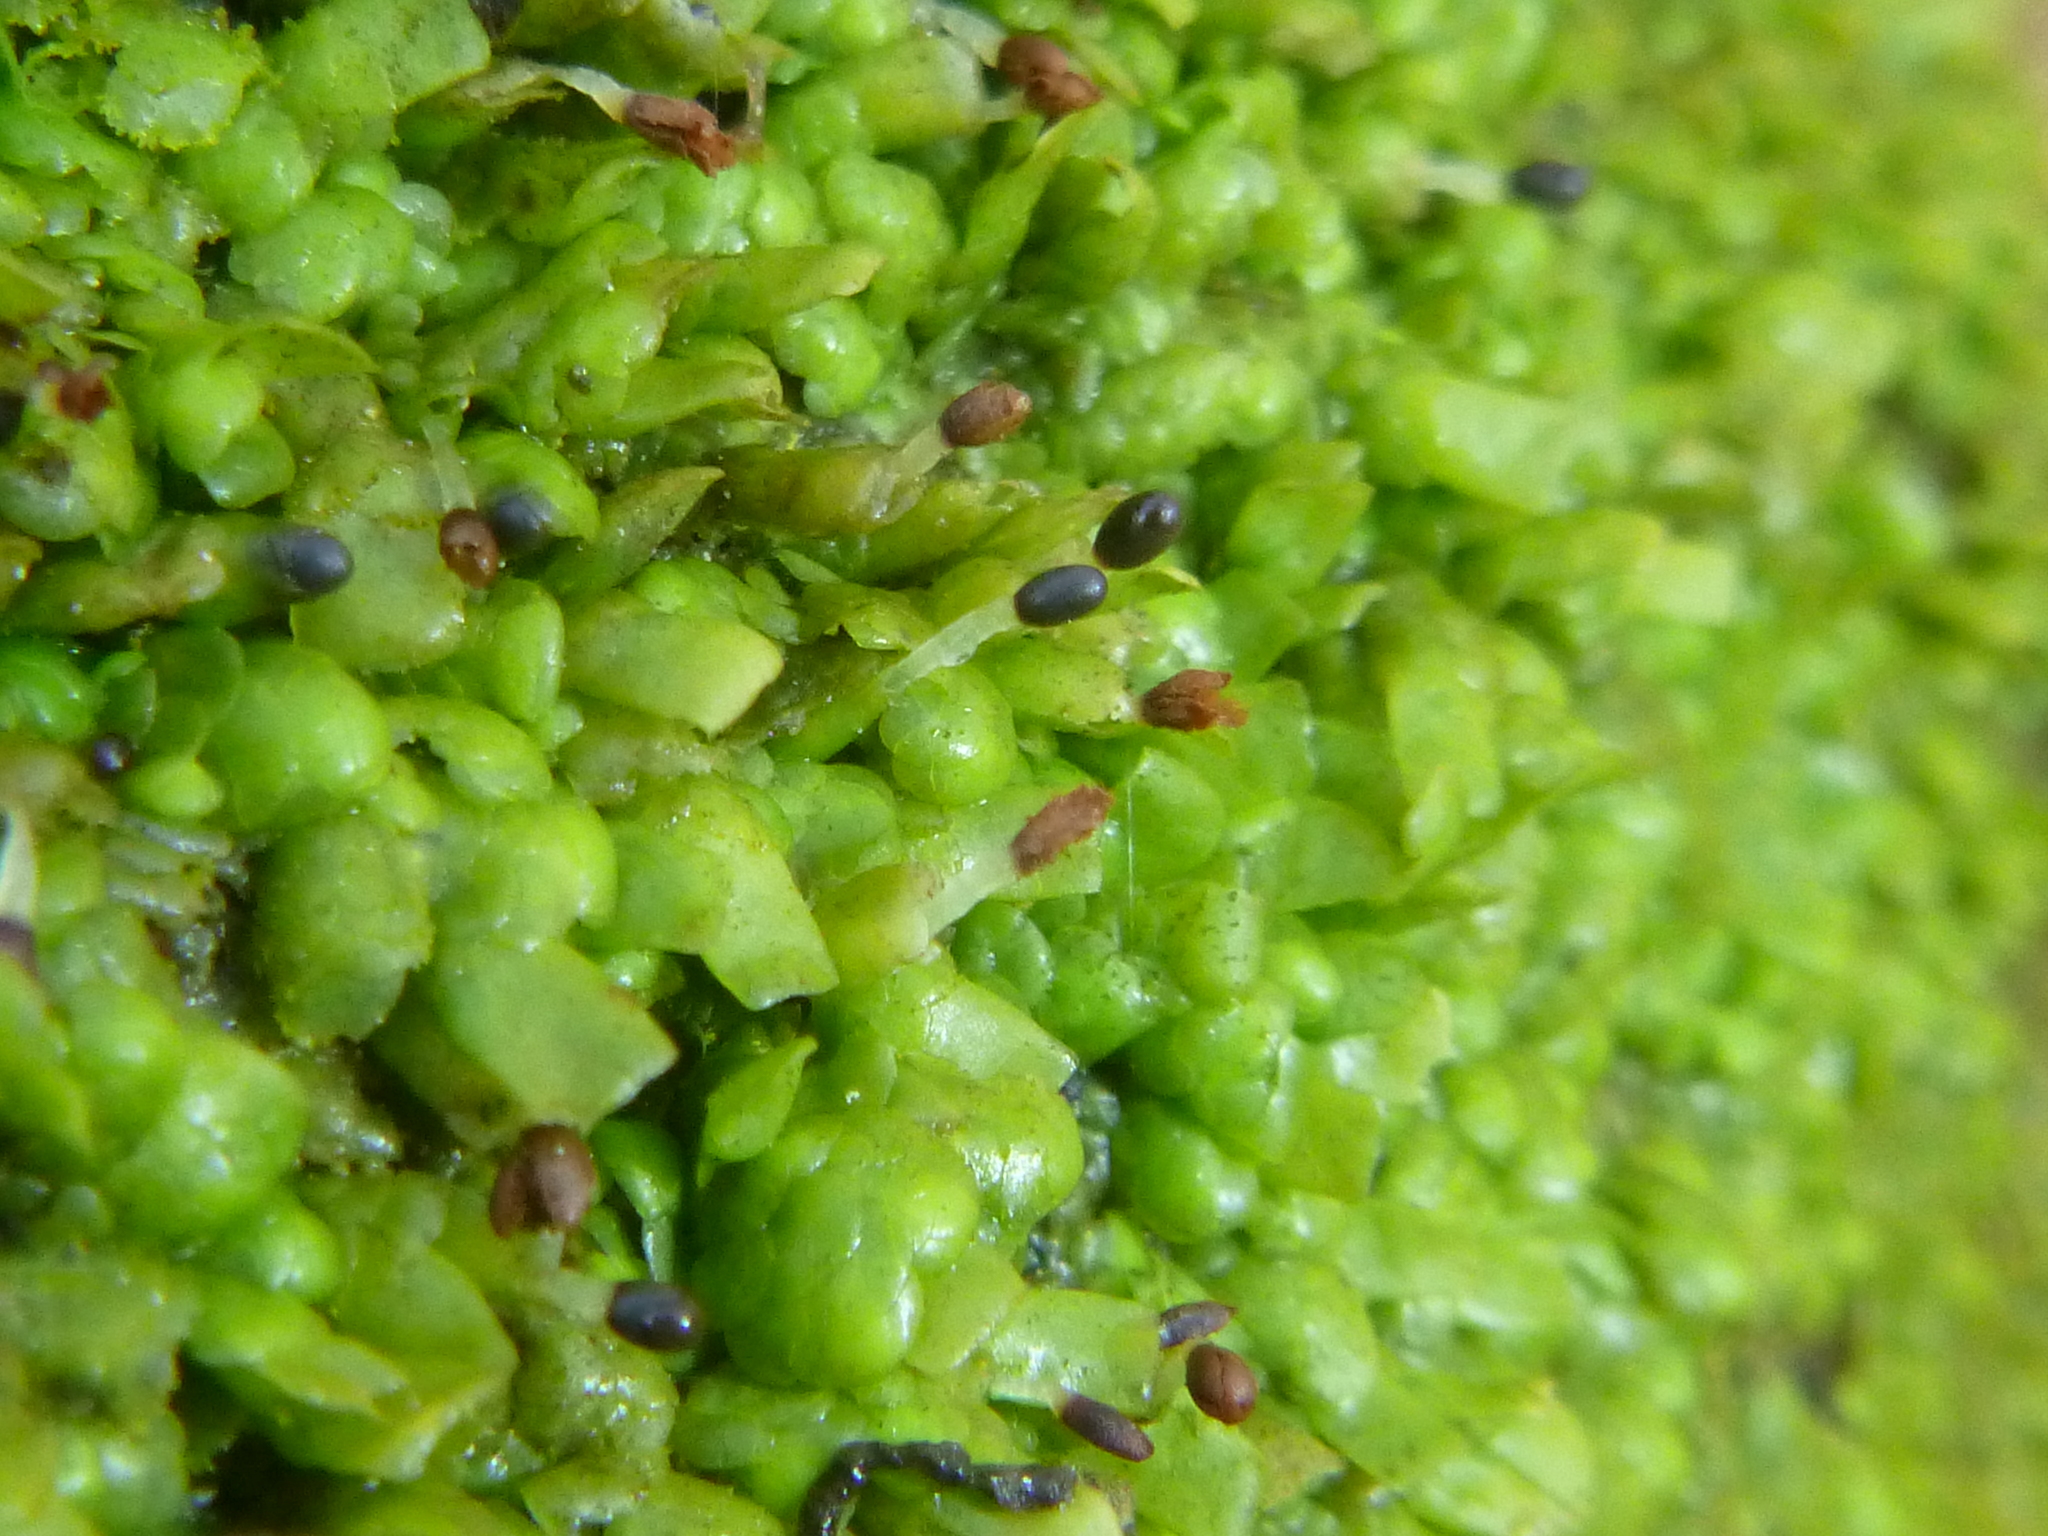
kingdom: Plantae
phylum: Marchantiophyta
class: Jungermanniopsida
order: Porellales
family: Radulaceae
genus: Radula
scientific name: Radula complanata
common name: Flat-leaved scalewort
